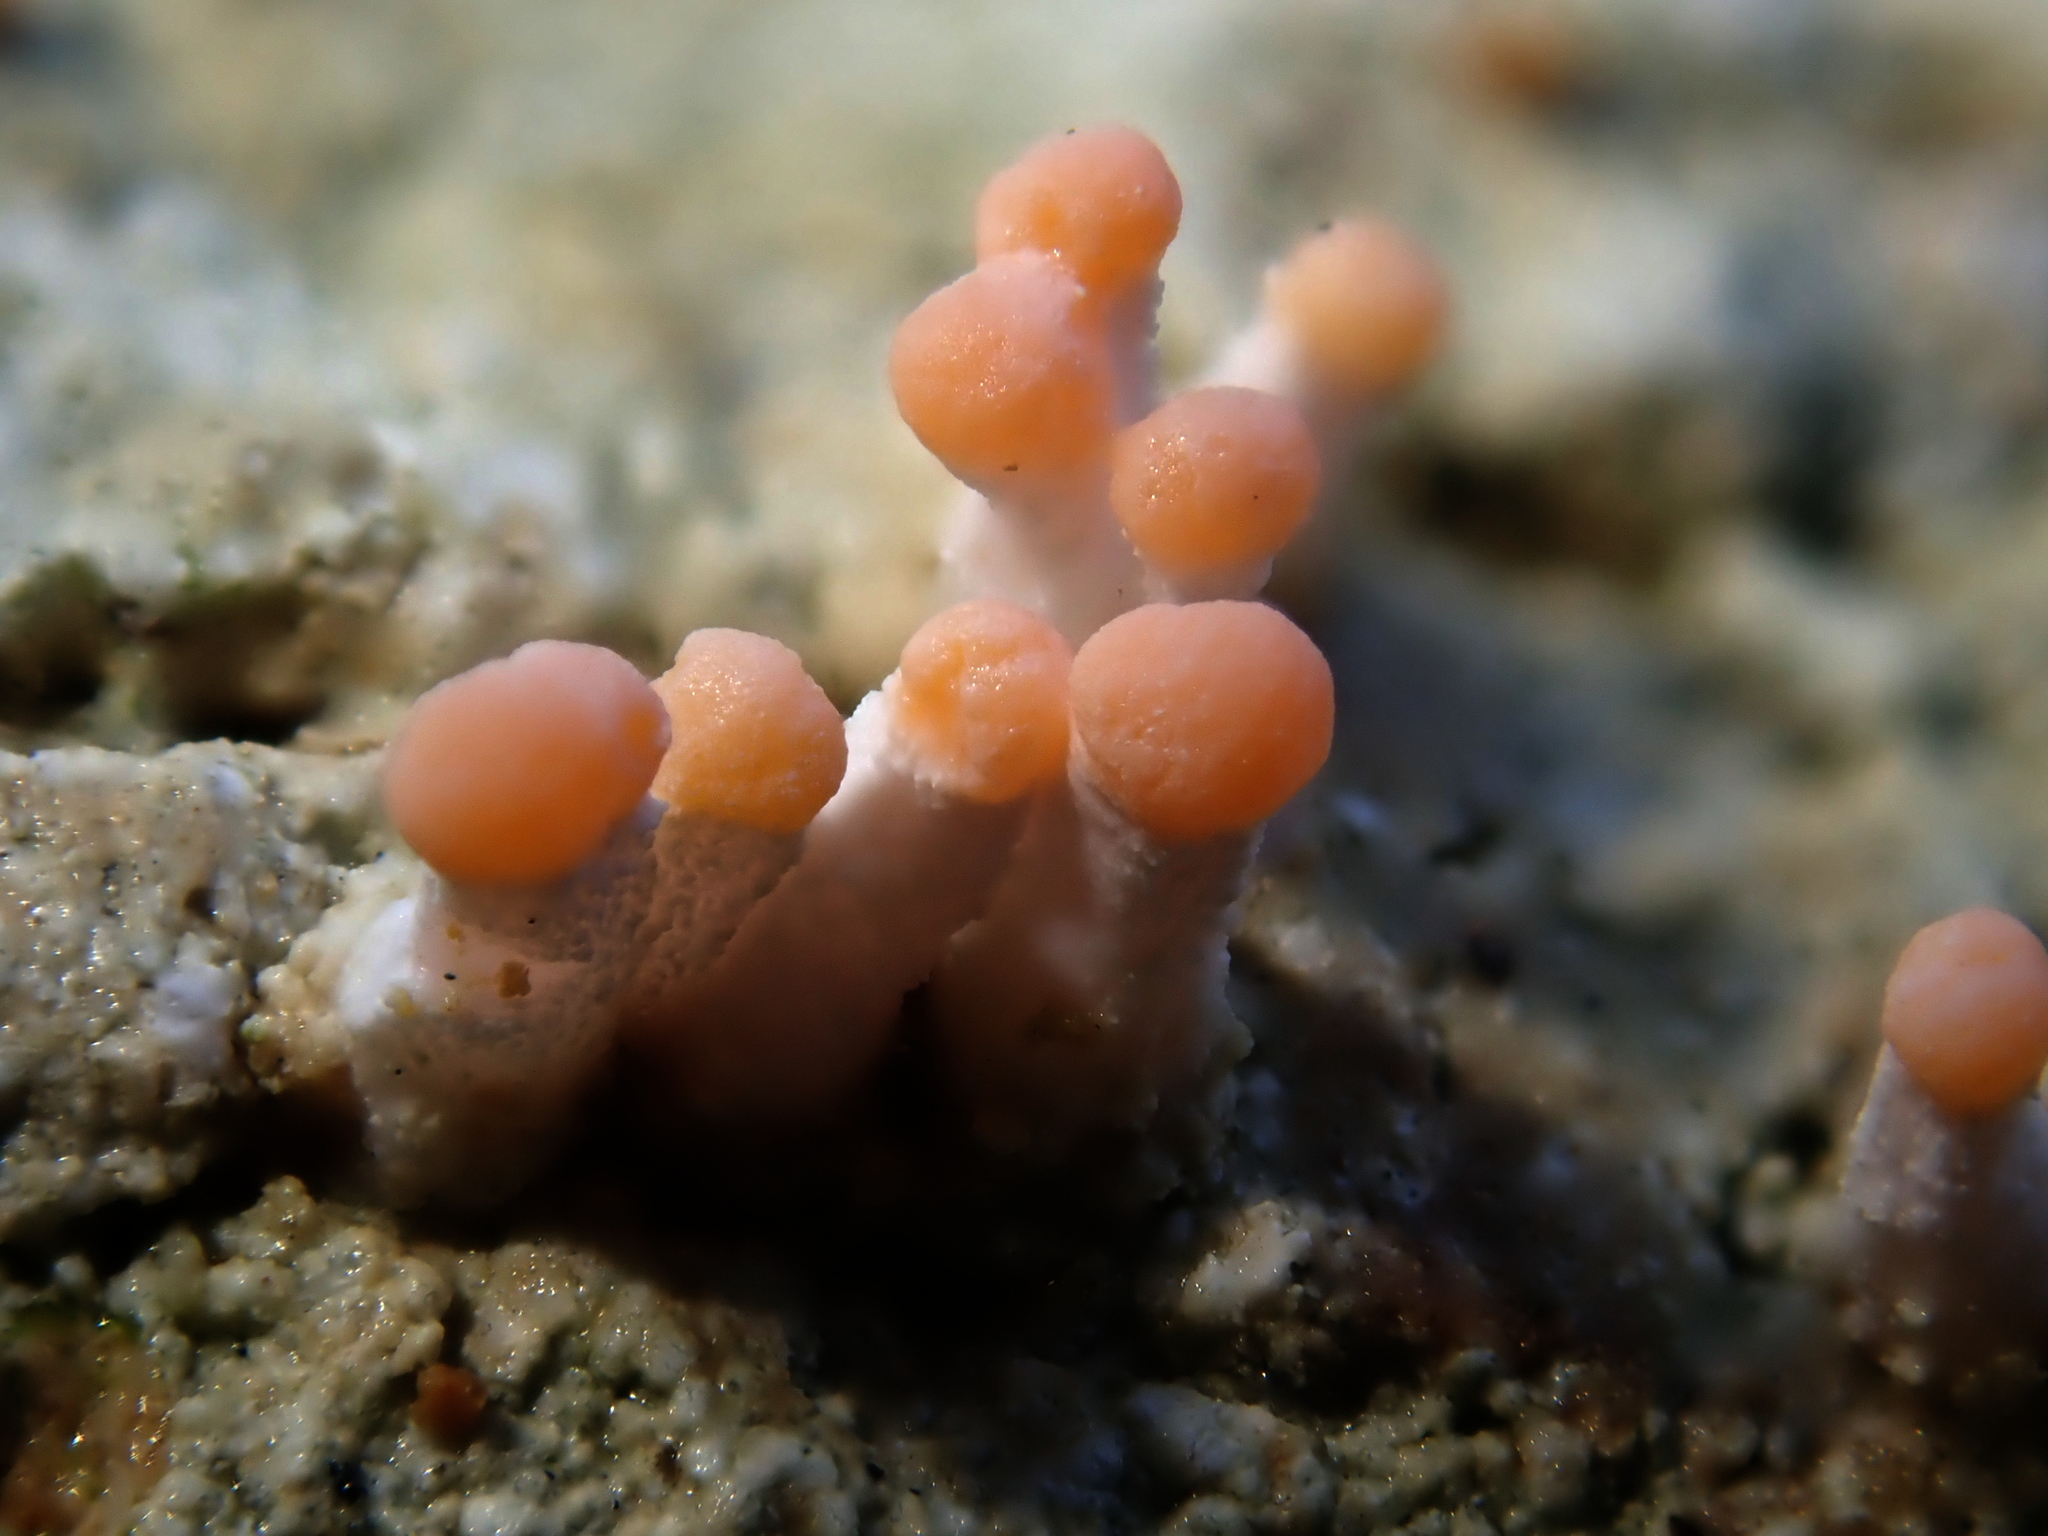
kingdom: Fungi
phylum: Ascomycota
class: Lecanoromycetes
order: Pertusariales
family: Icmadophilaceae
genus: Dibaeis
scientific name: Dibaeis arcuata
